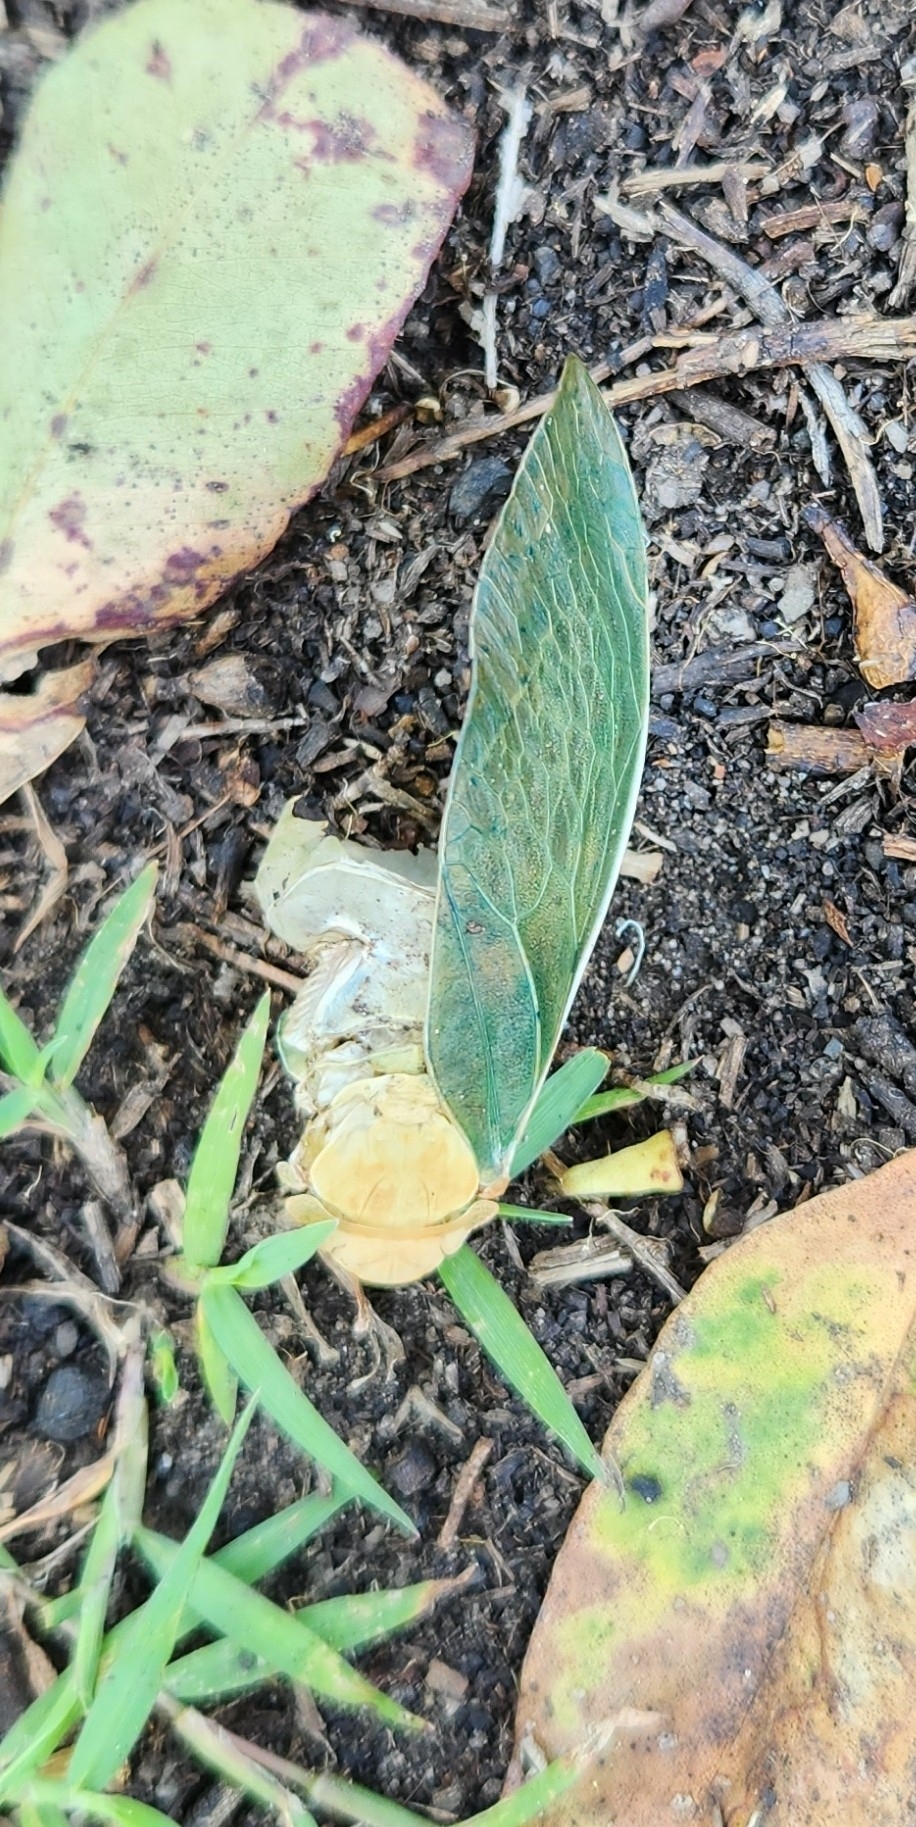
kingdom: Animalia
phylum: Arthropoda
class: Insecta
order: Hemiptera
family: Cicadidae
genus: Cystosoma
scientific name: Cystosoma saundersii
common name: Bladder cicada
